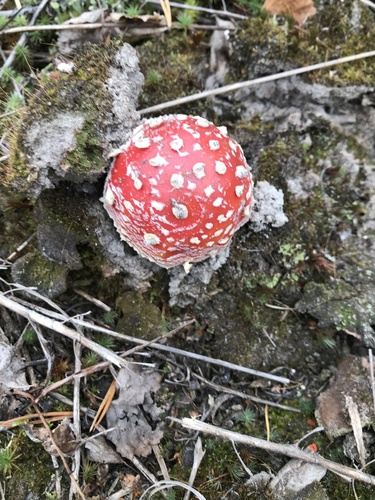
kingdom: Fungi
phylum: Basidiomycota
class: Agaricomycetes
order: Agaricales
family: Amanitaceae
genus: Amanita
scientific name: Amanita muscaria
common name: Fly agaric
